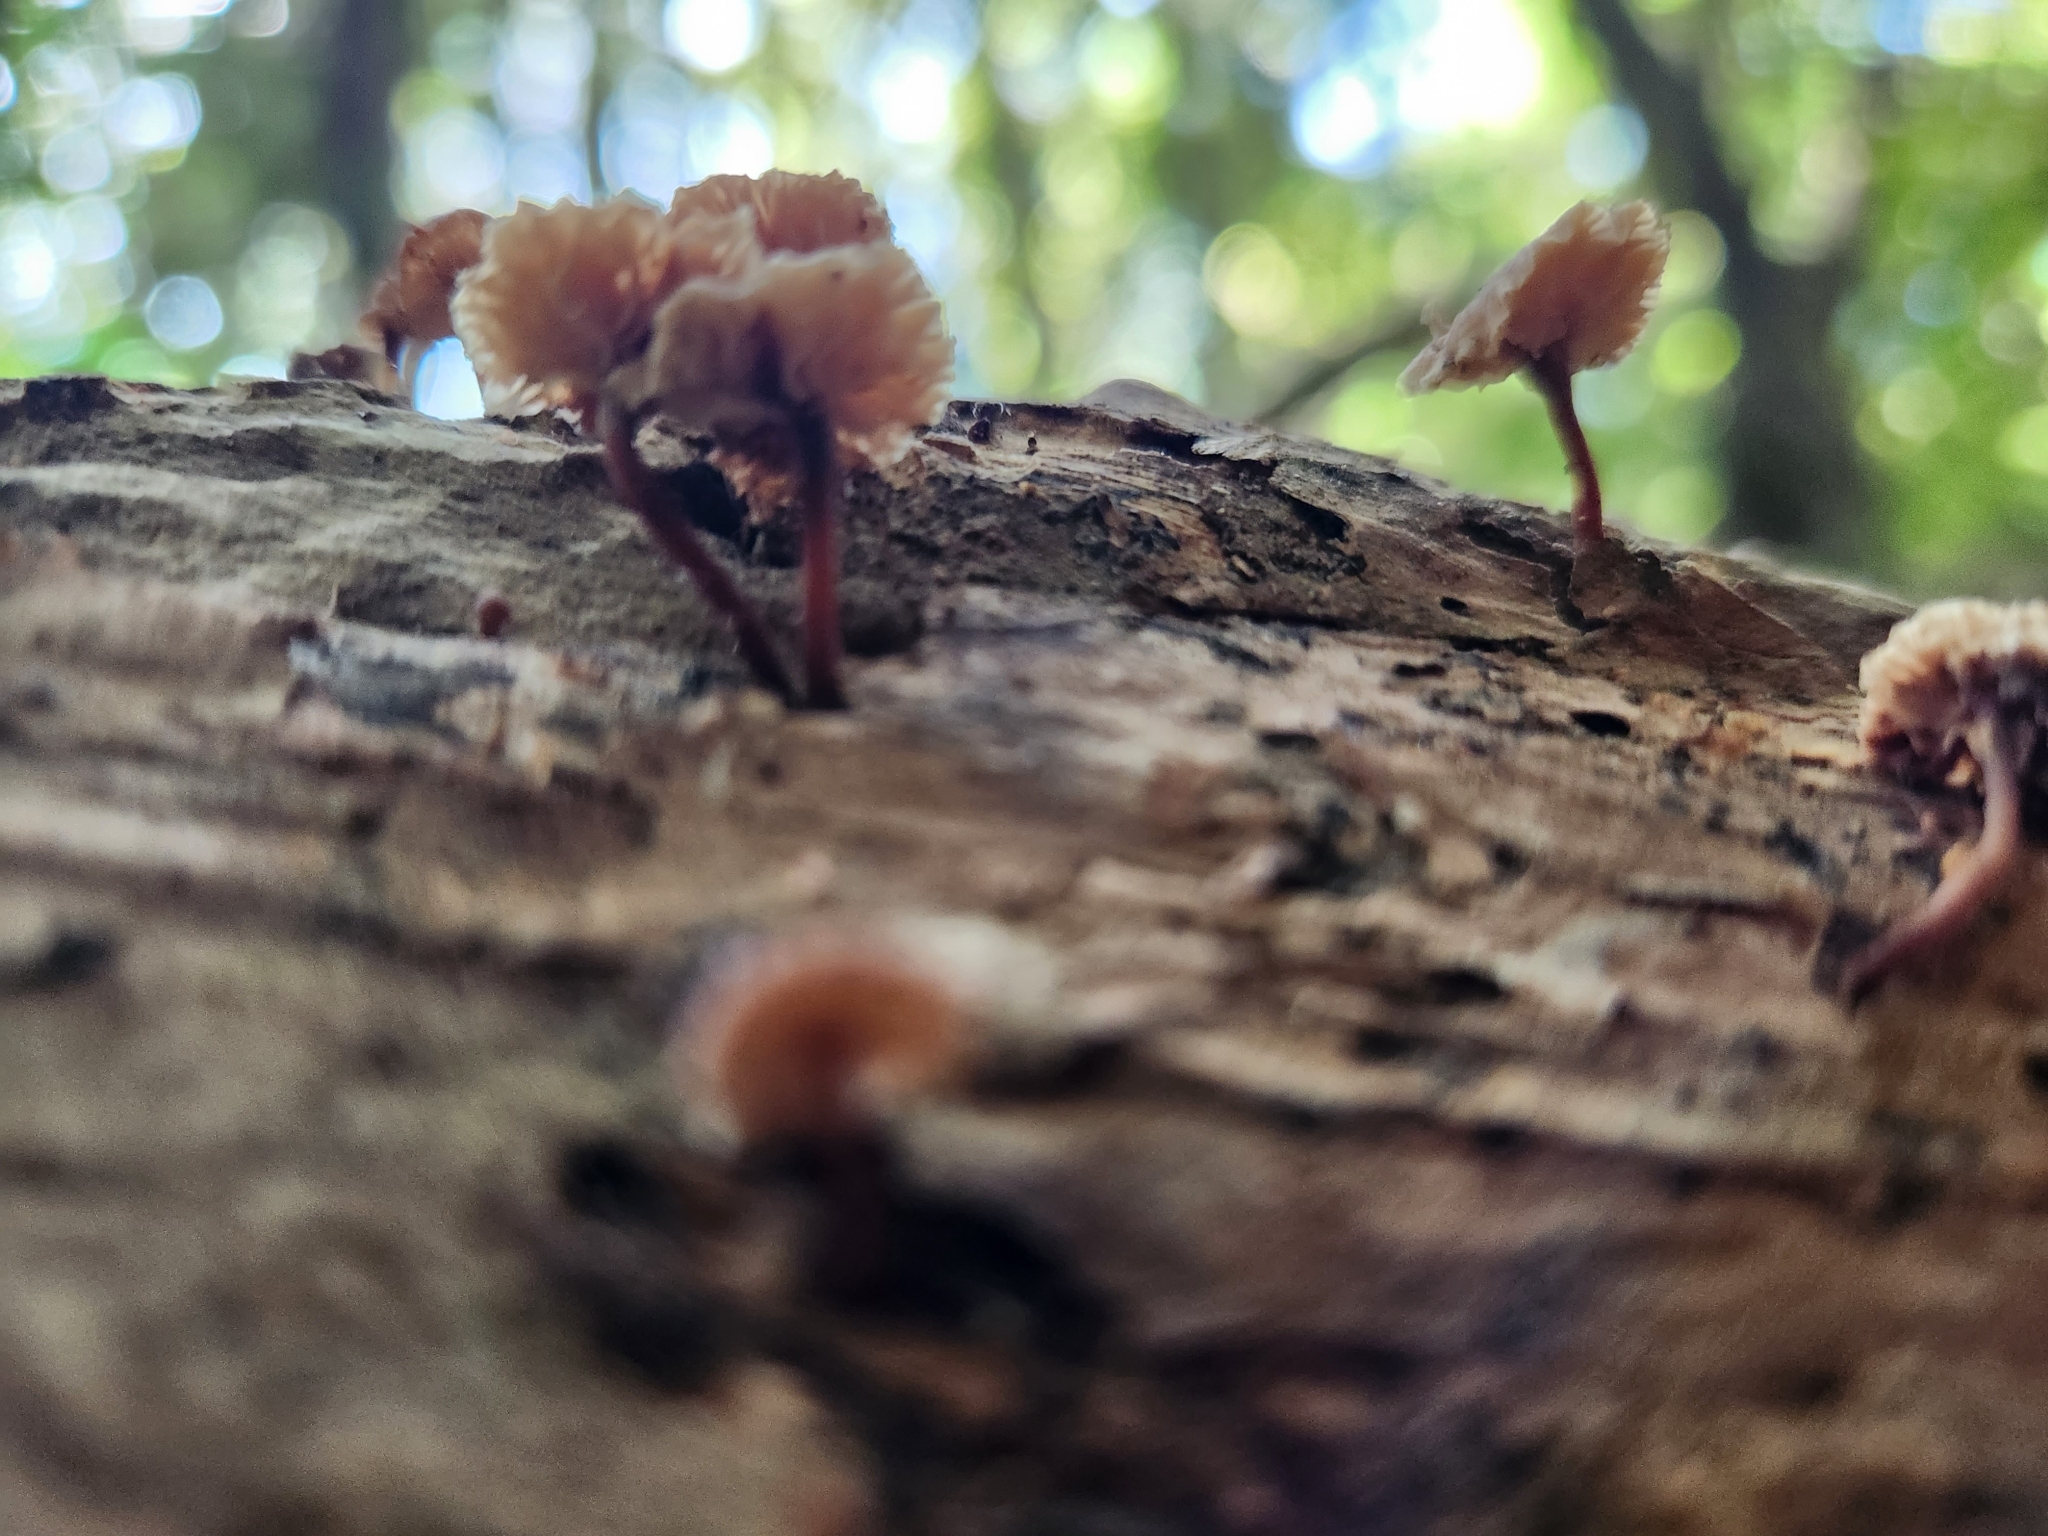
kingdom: Fungi
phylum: Basidiomycota
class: Agaricomycetes
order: Agaricales
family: Omphalotaceae
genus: Mycetinis
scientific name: Mycetinis curraniae
